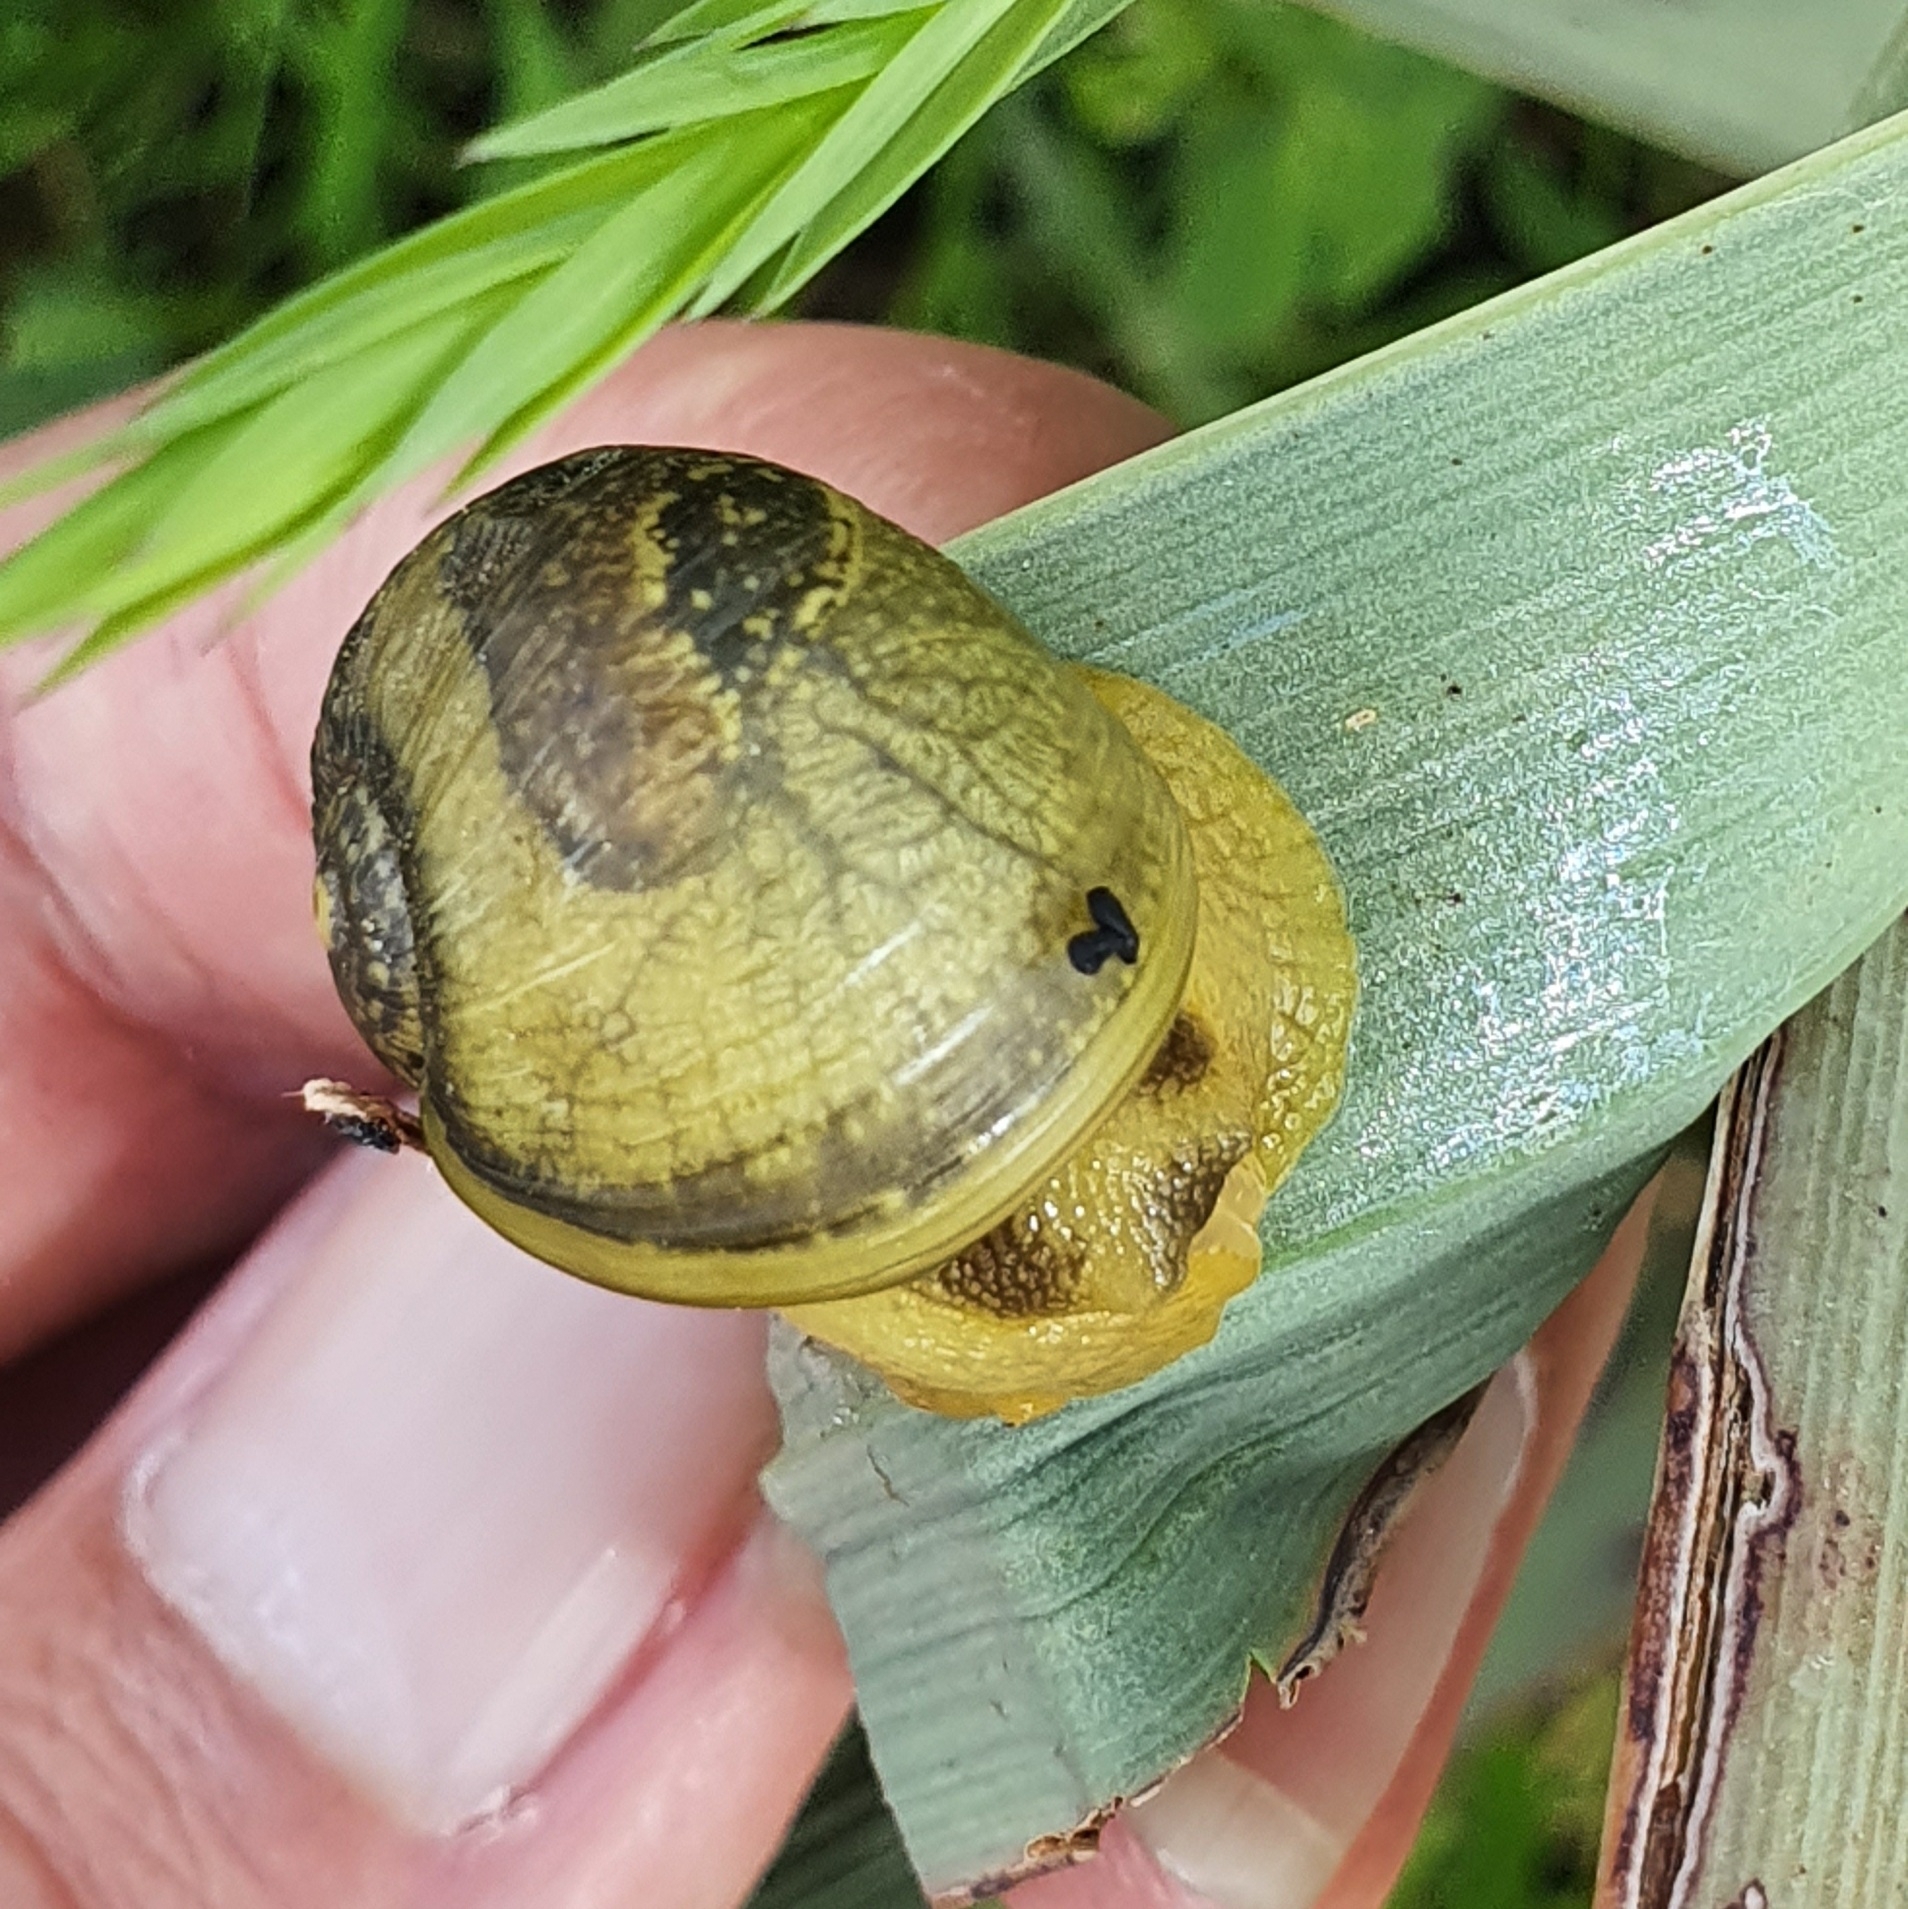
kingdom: Animalia
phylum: Mollusca
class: Gastropoda
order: Stylommatophora
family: Helicidae
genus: Cantareus
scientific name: Cantareus apertus
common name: Green gardensnail
